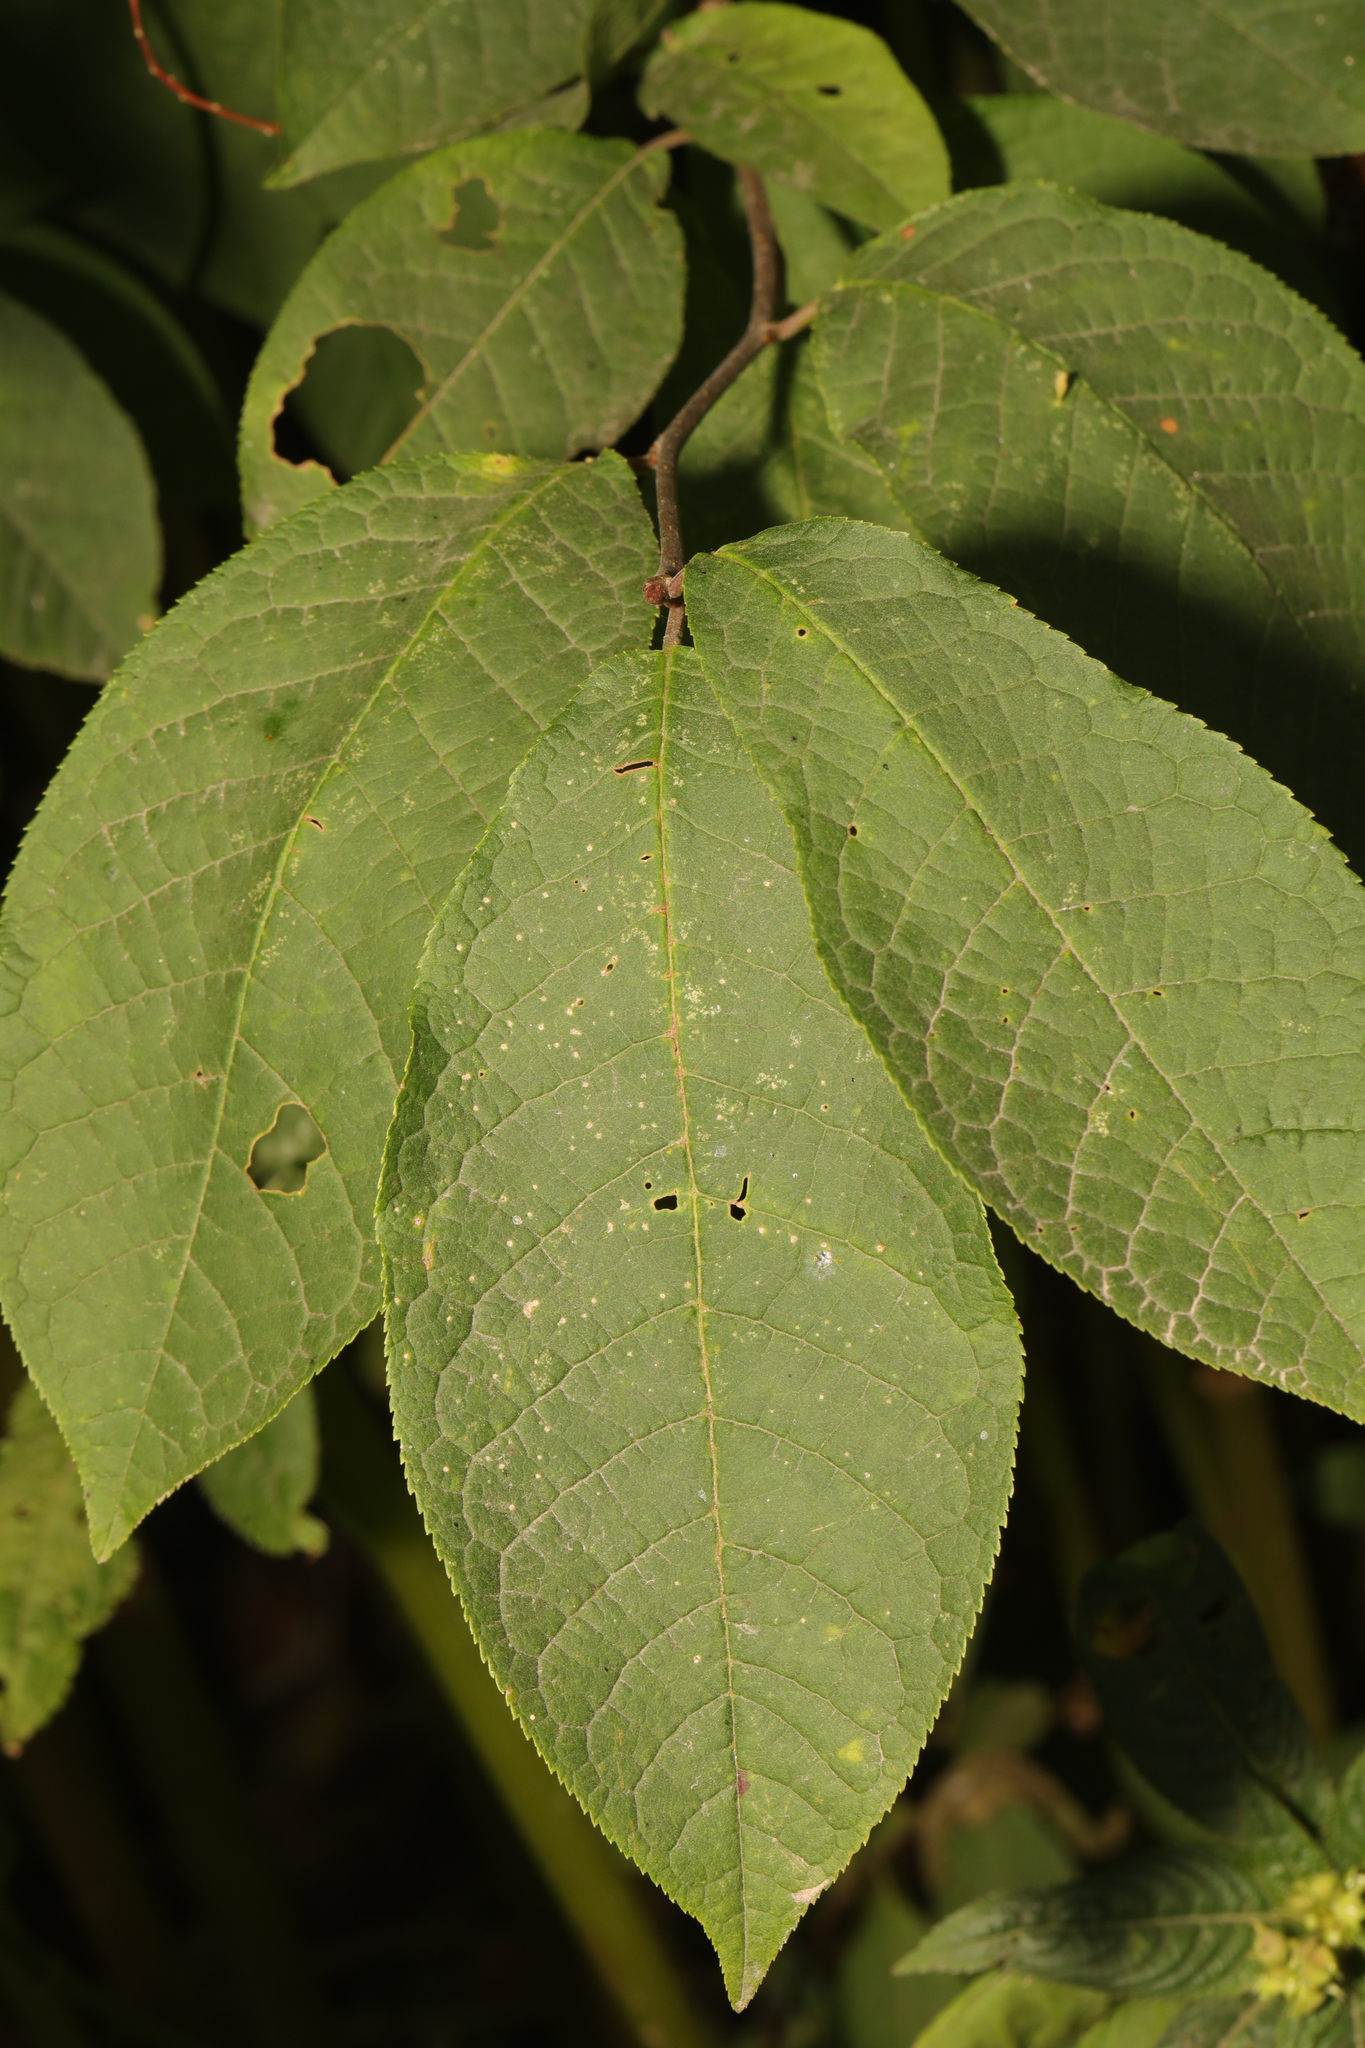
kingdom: Plantae
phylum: Tracheophyta
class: Magnoliopsida
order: Rosales
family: Rosaceae
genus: Prunus
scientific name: Prunus padus
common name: Bird cherry
